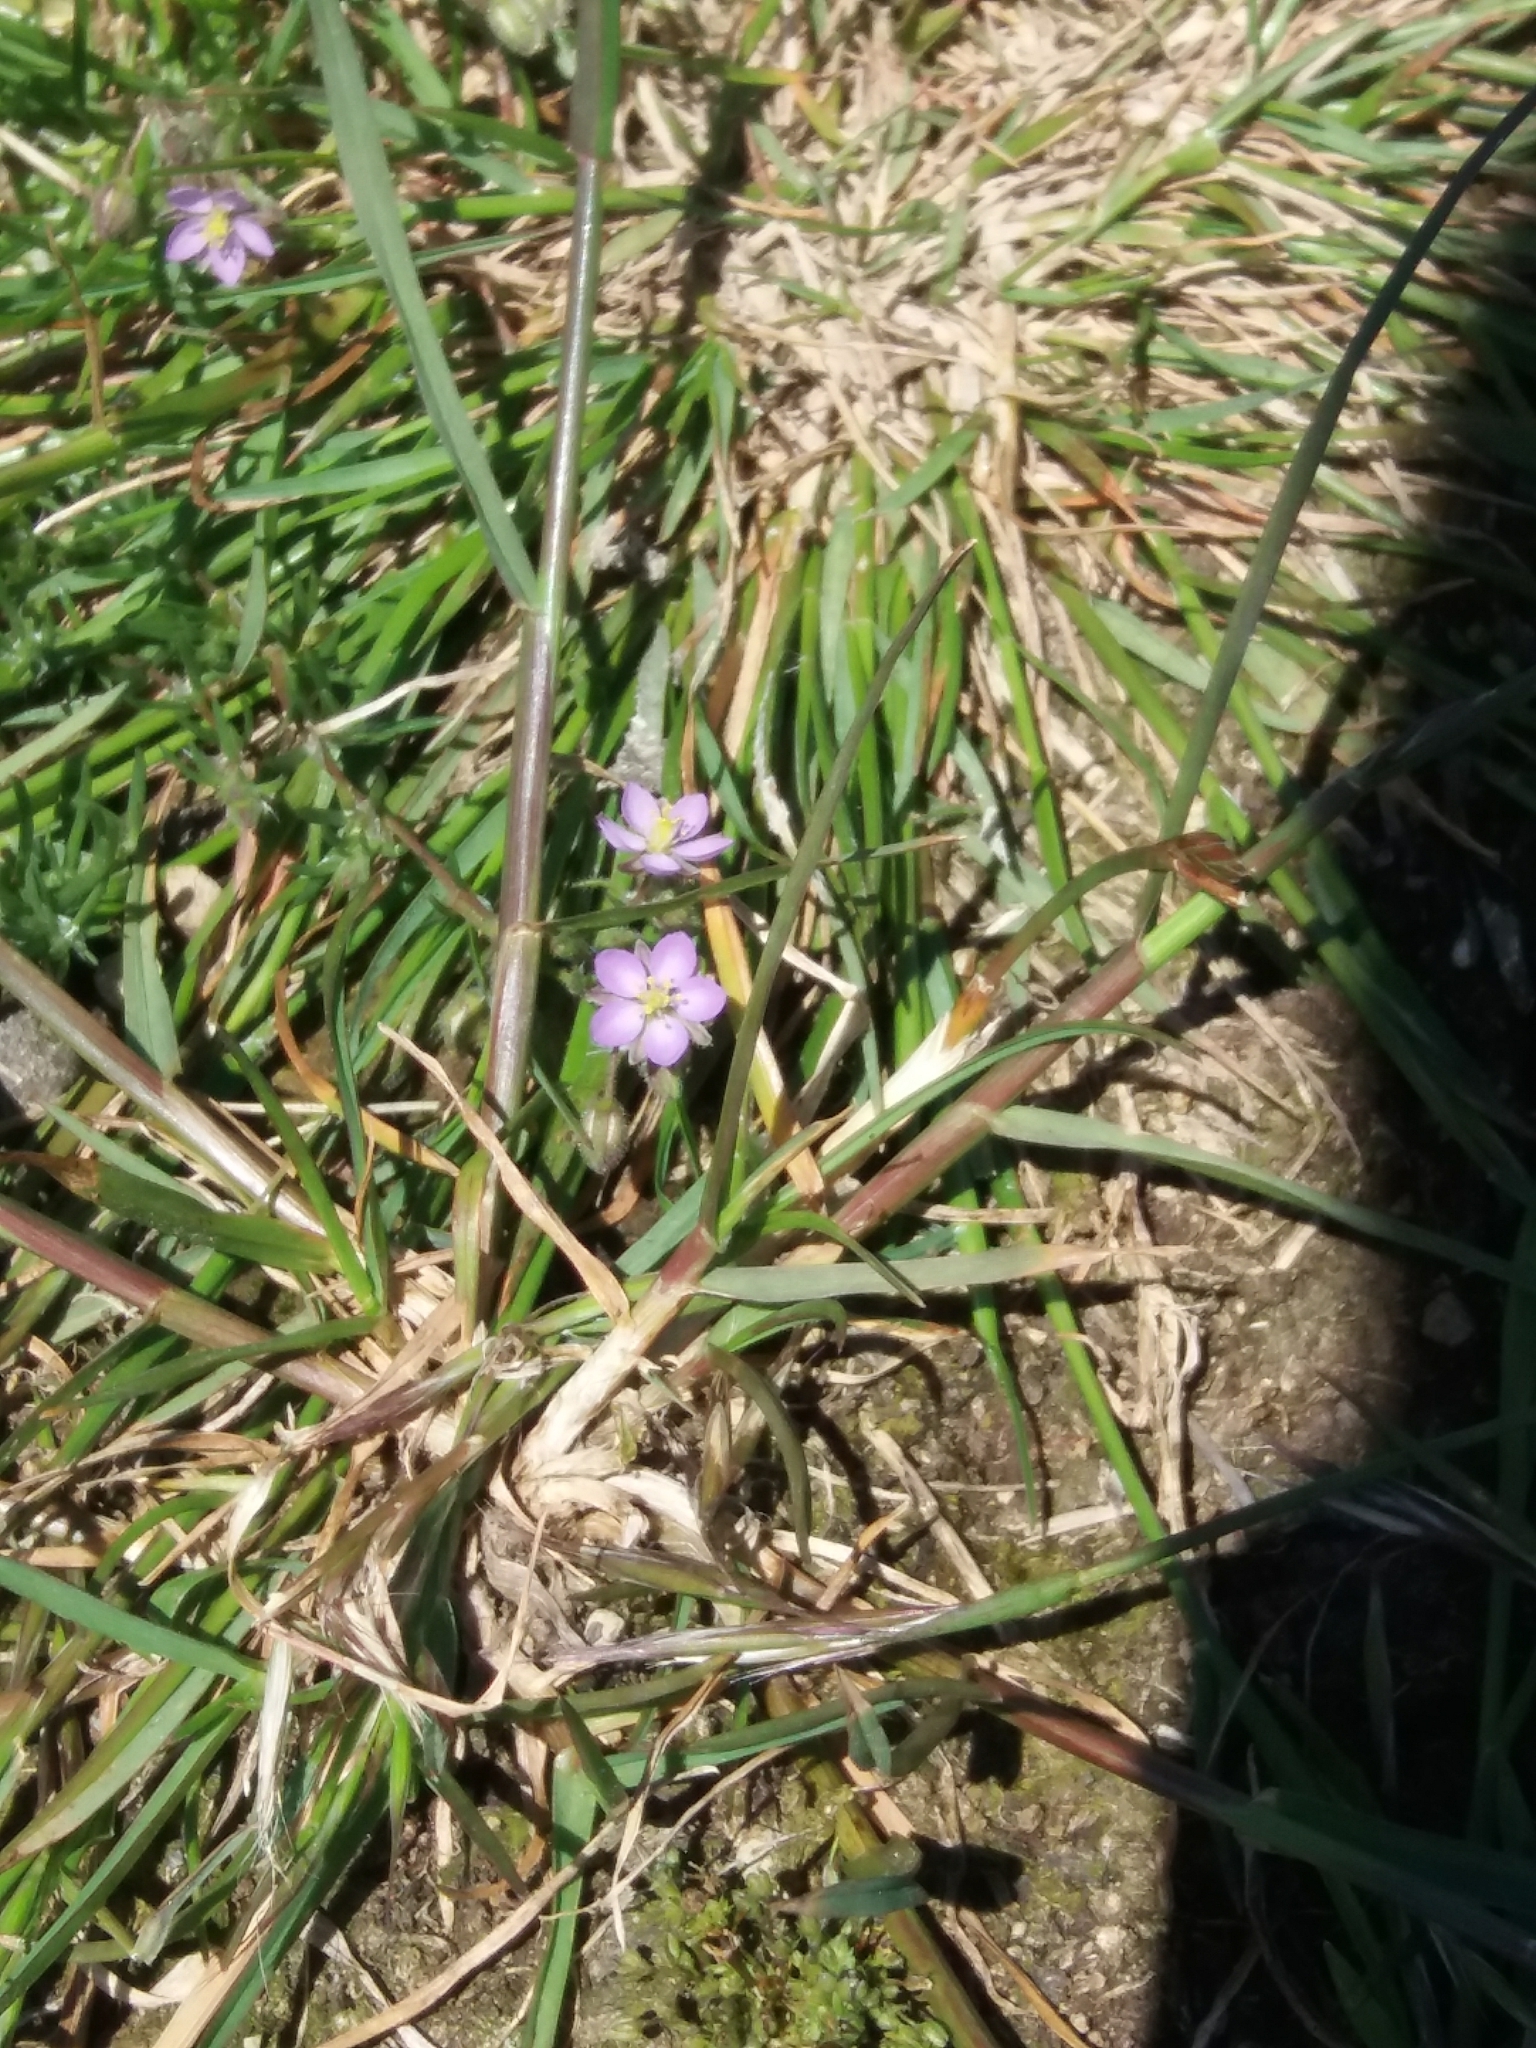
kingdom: Plantae
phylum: Tracheophyta
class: Magnoliopsida
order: Caryophyllales
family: Caryophyllaceae
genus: Spergularia
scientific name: Spergularia rubra
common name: Red sand-spurrey
